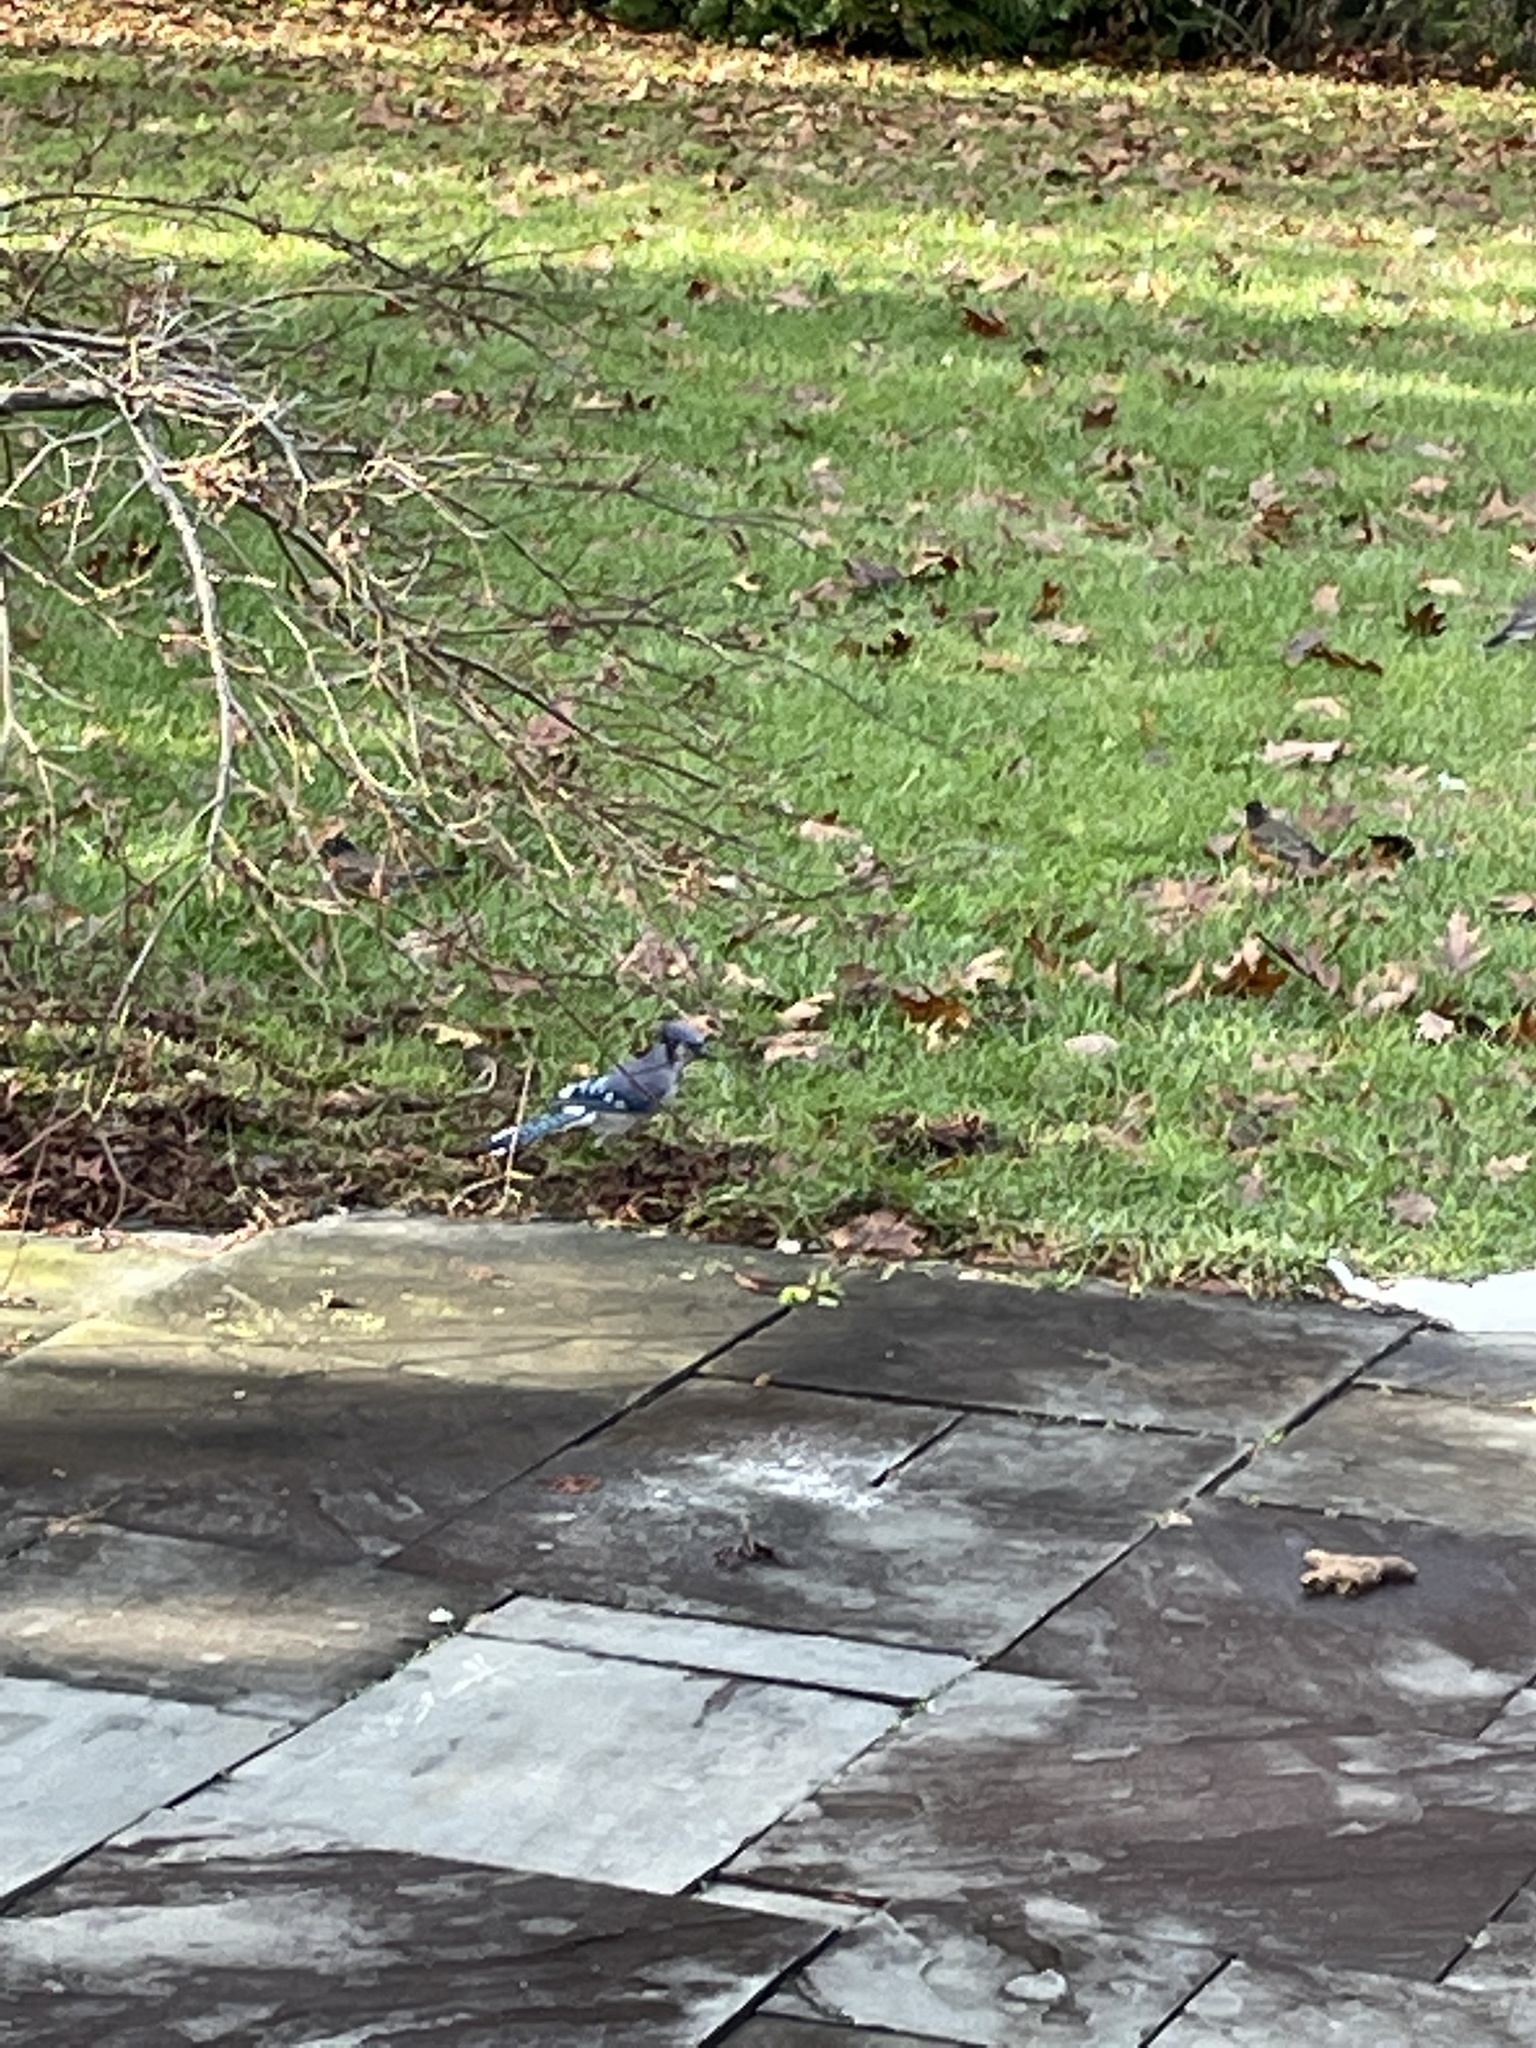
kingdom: Animalia
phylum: Chordata
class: Aves
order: Passeriformes
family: Corvidae
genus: Cyanocitta
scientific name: Cyanocitta cristata
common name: Blue jay
